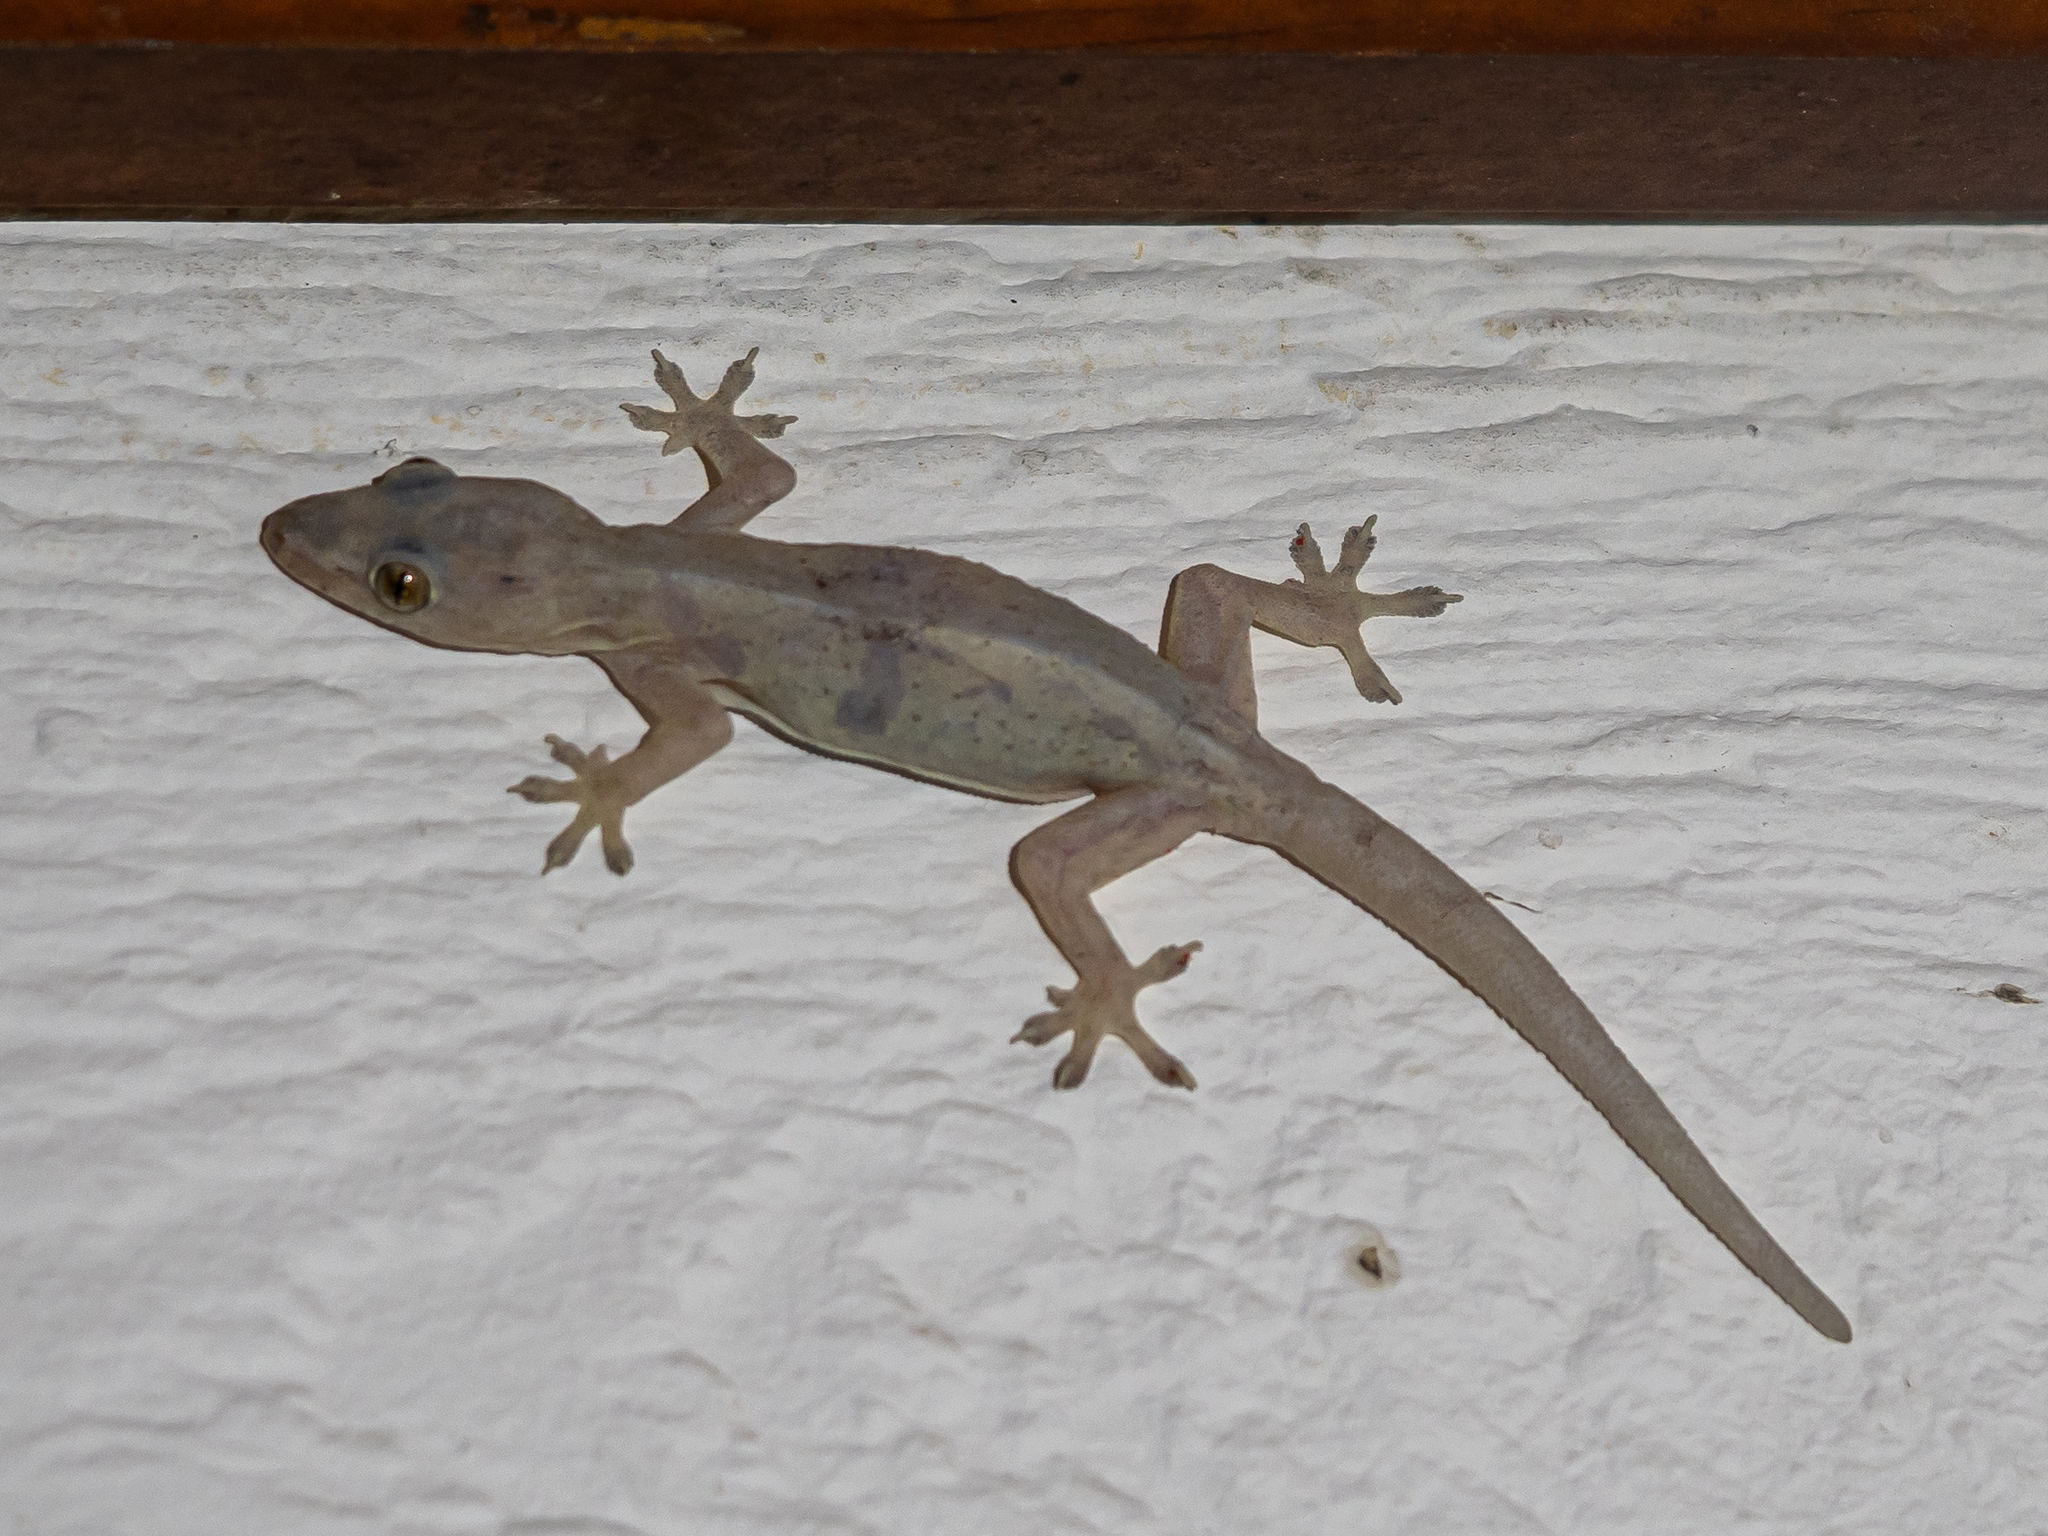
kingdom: Animalia
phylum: Chordata
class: Squamata
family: Gekkonidae
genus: Hemidactylus
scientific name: Hemidactylus frenatus
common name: Common house gecko
